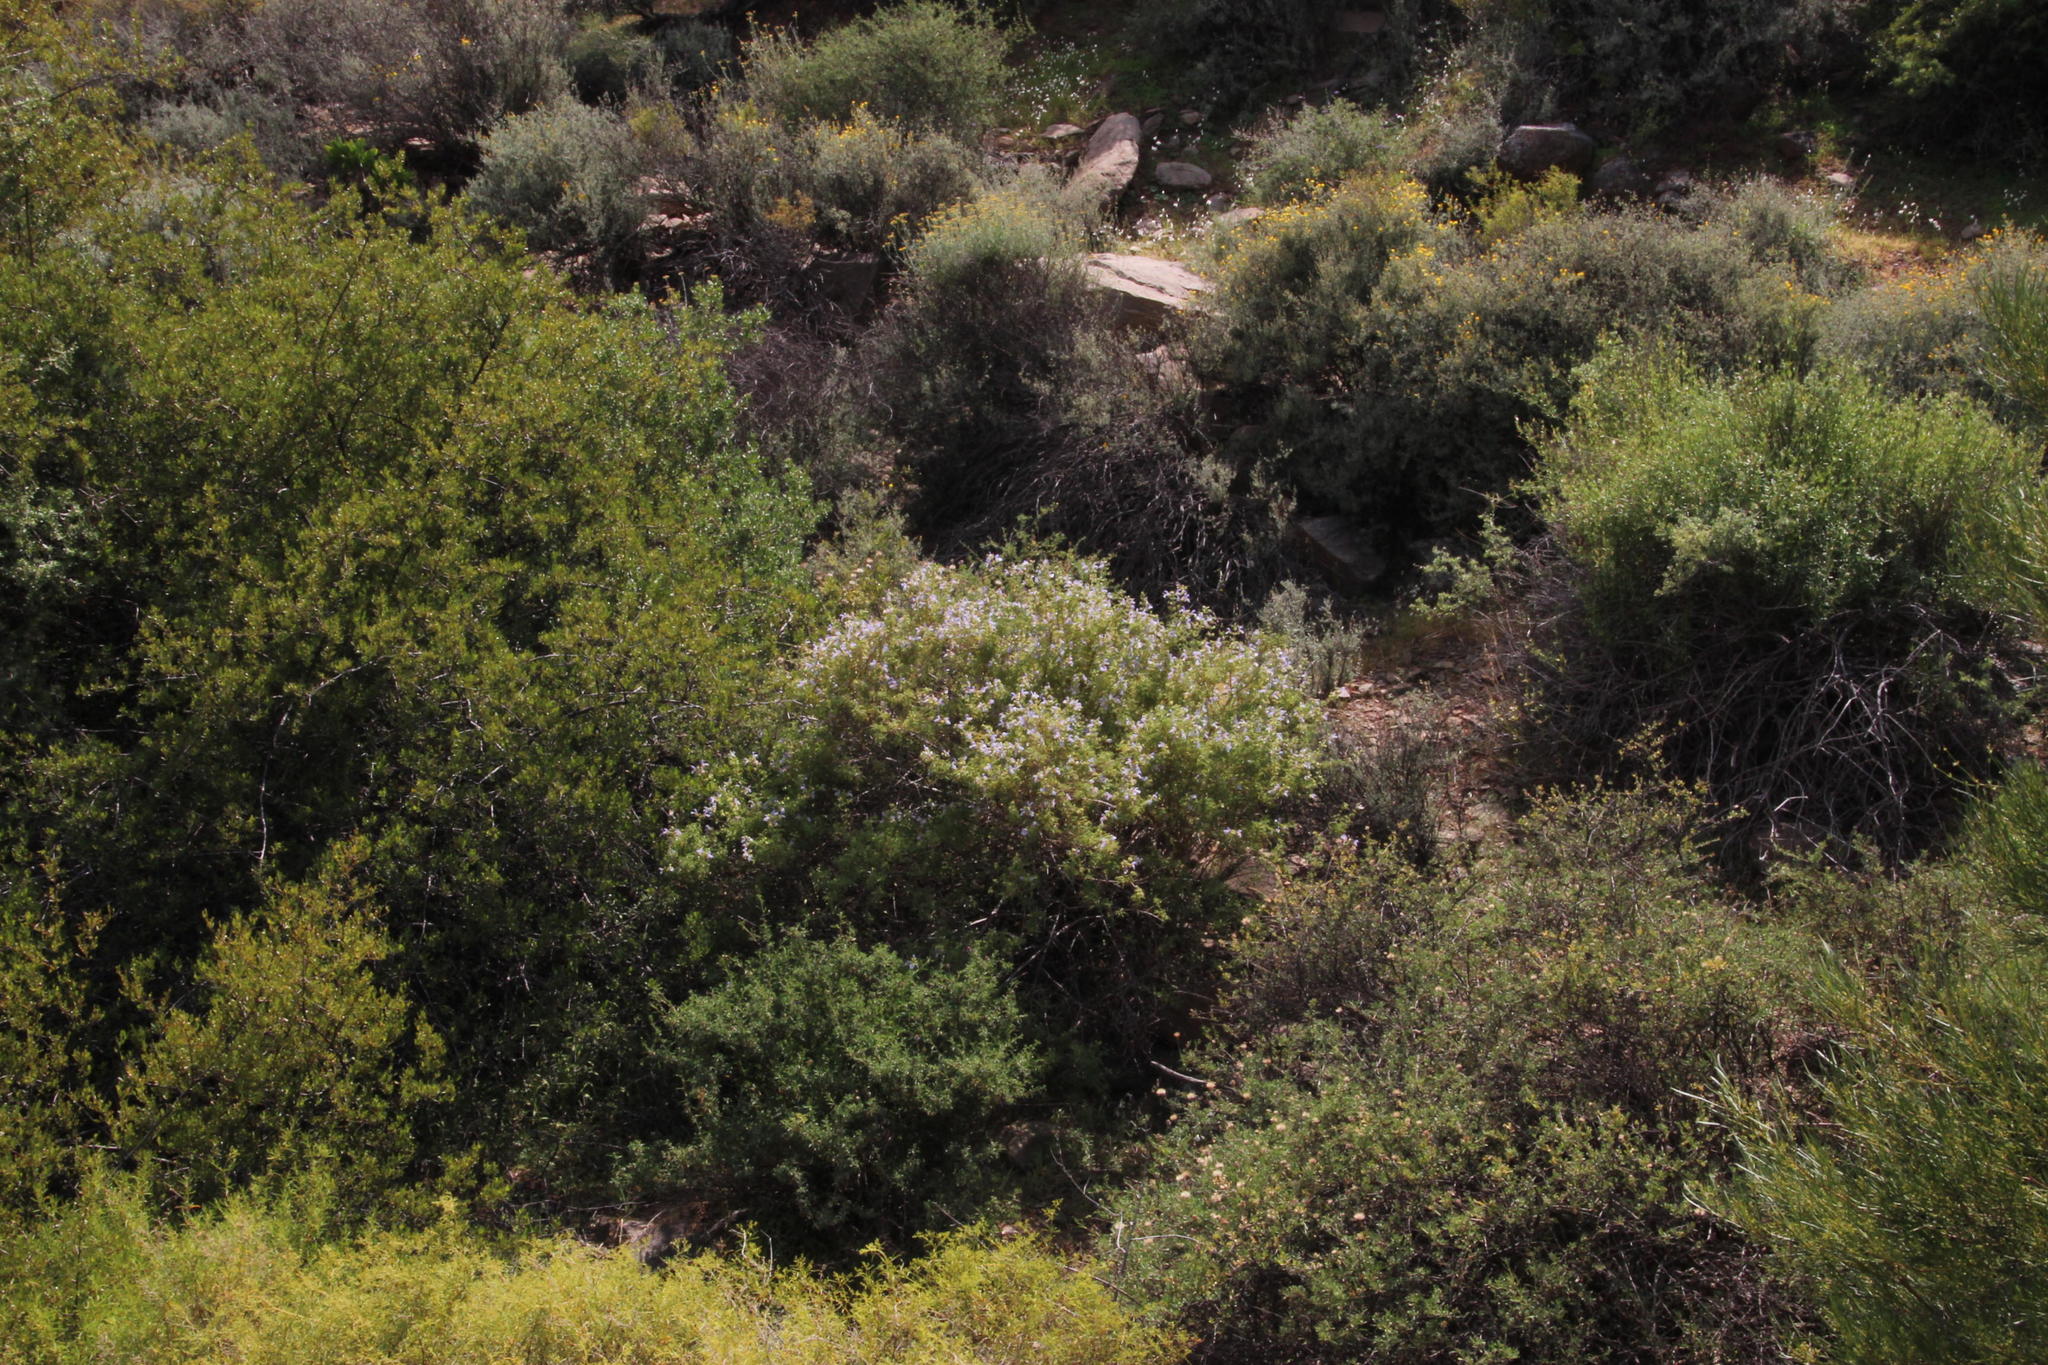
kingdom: Plantae
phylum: Tracheophyta
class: Magnoliopsida
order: Lamiales
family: Lamiaceae
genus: Salvia
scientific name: Salvia dentata
